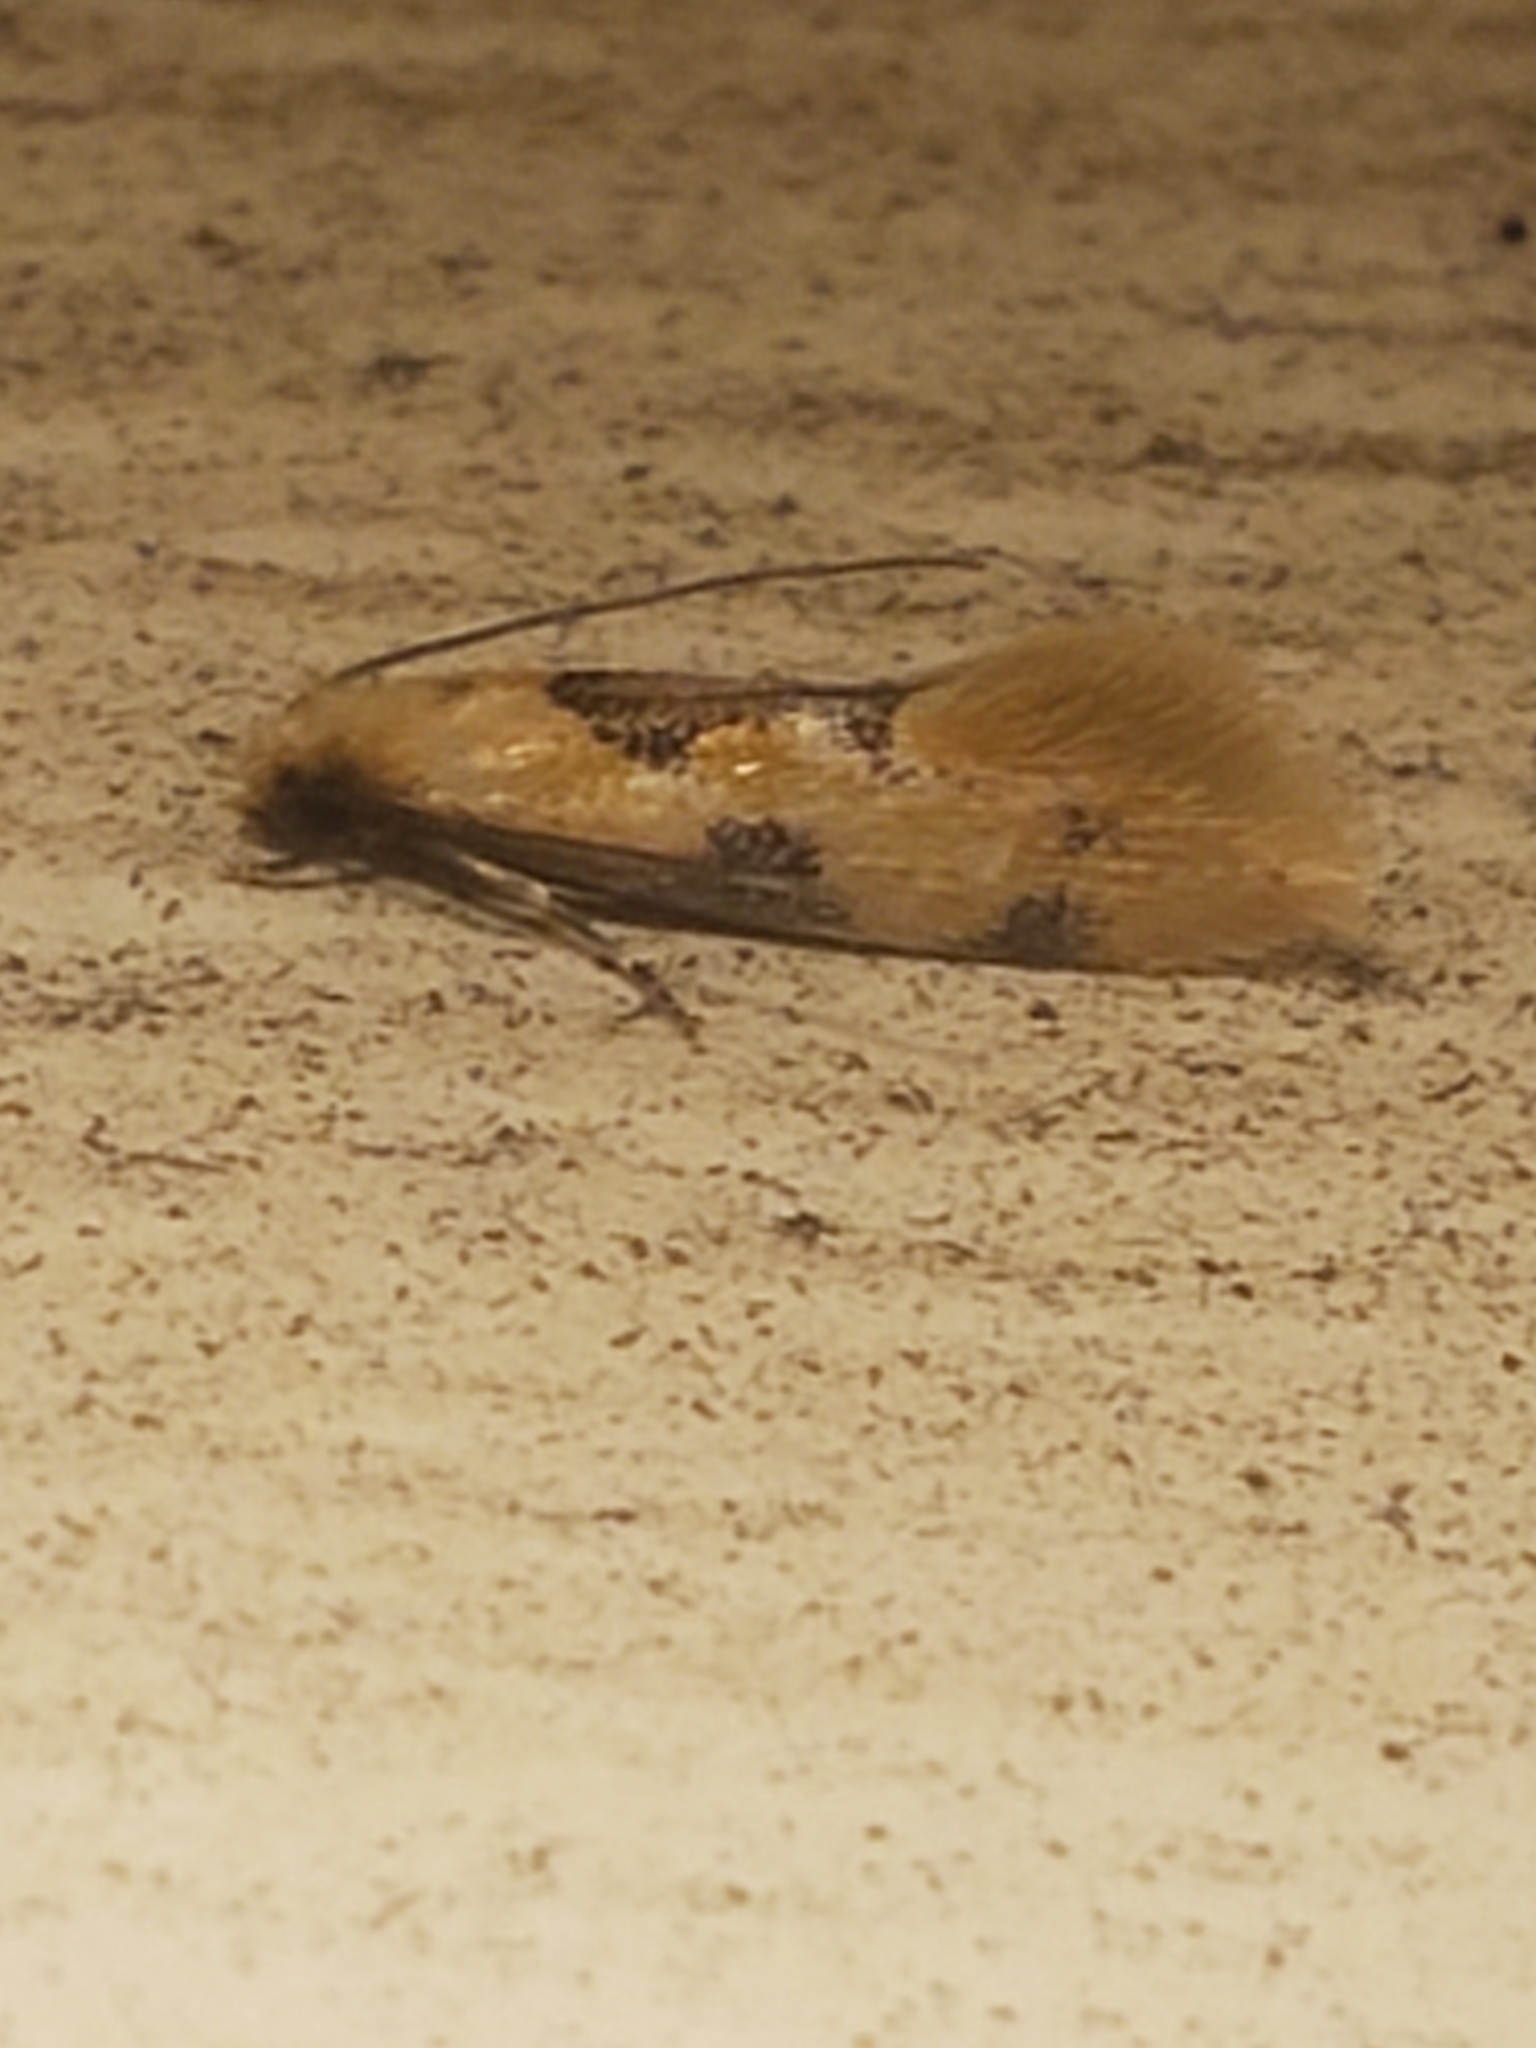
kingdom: Animalia
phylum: Arthropoda
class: Insecta
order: Lepidoptera
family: Meessiidae
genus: Hybroma
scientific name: Hybroma servulella
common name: Yellow wave moth
